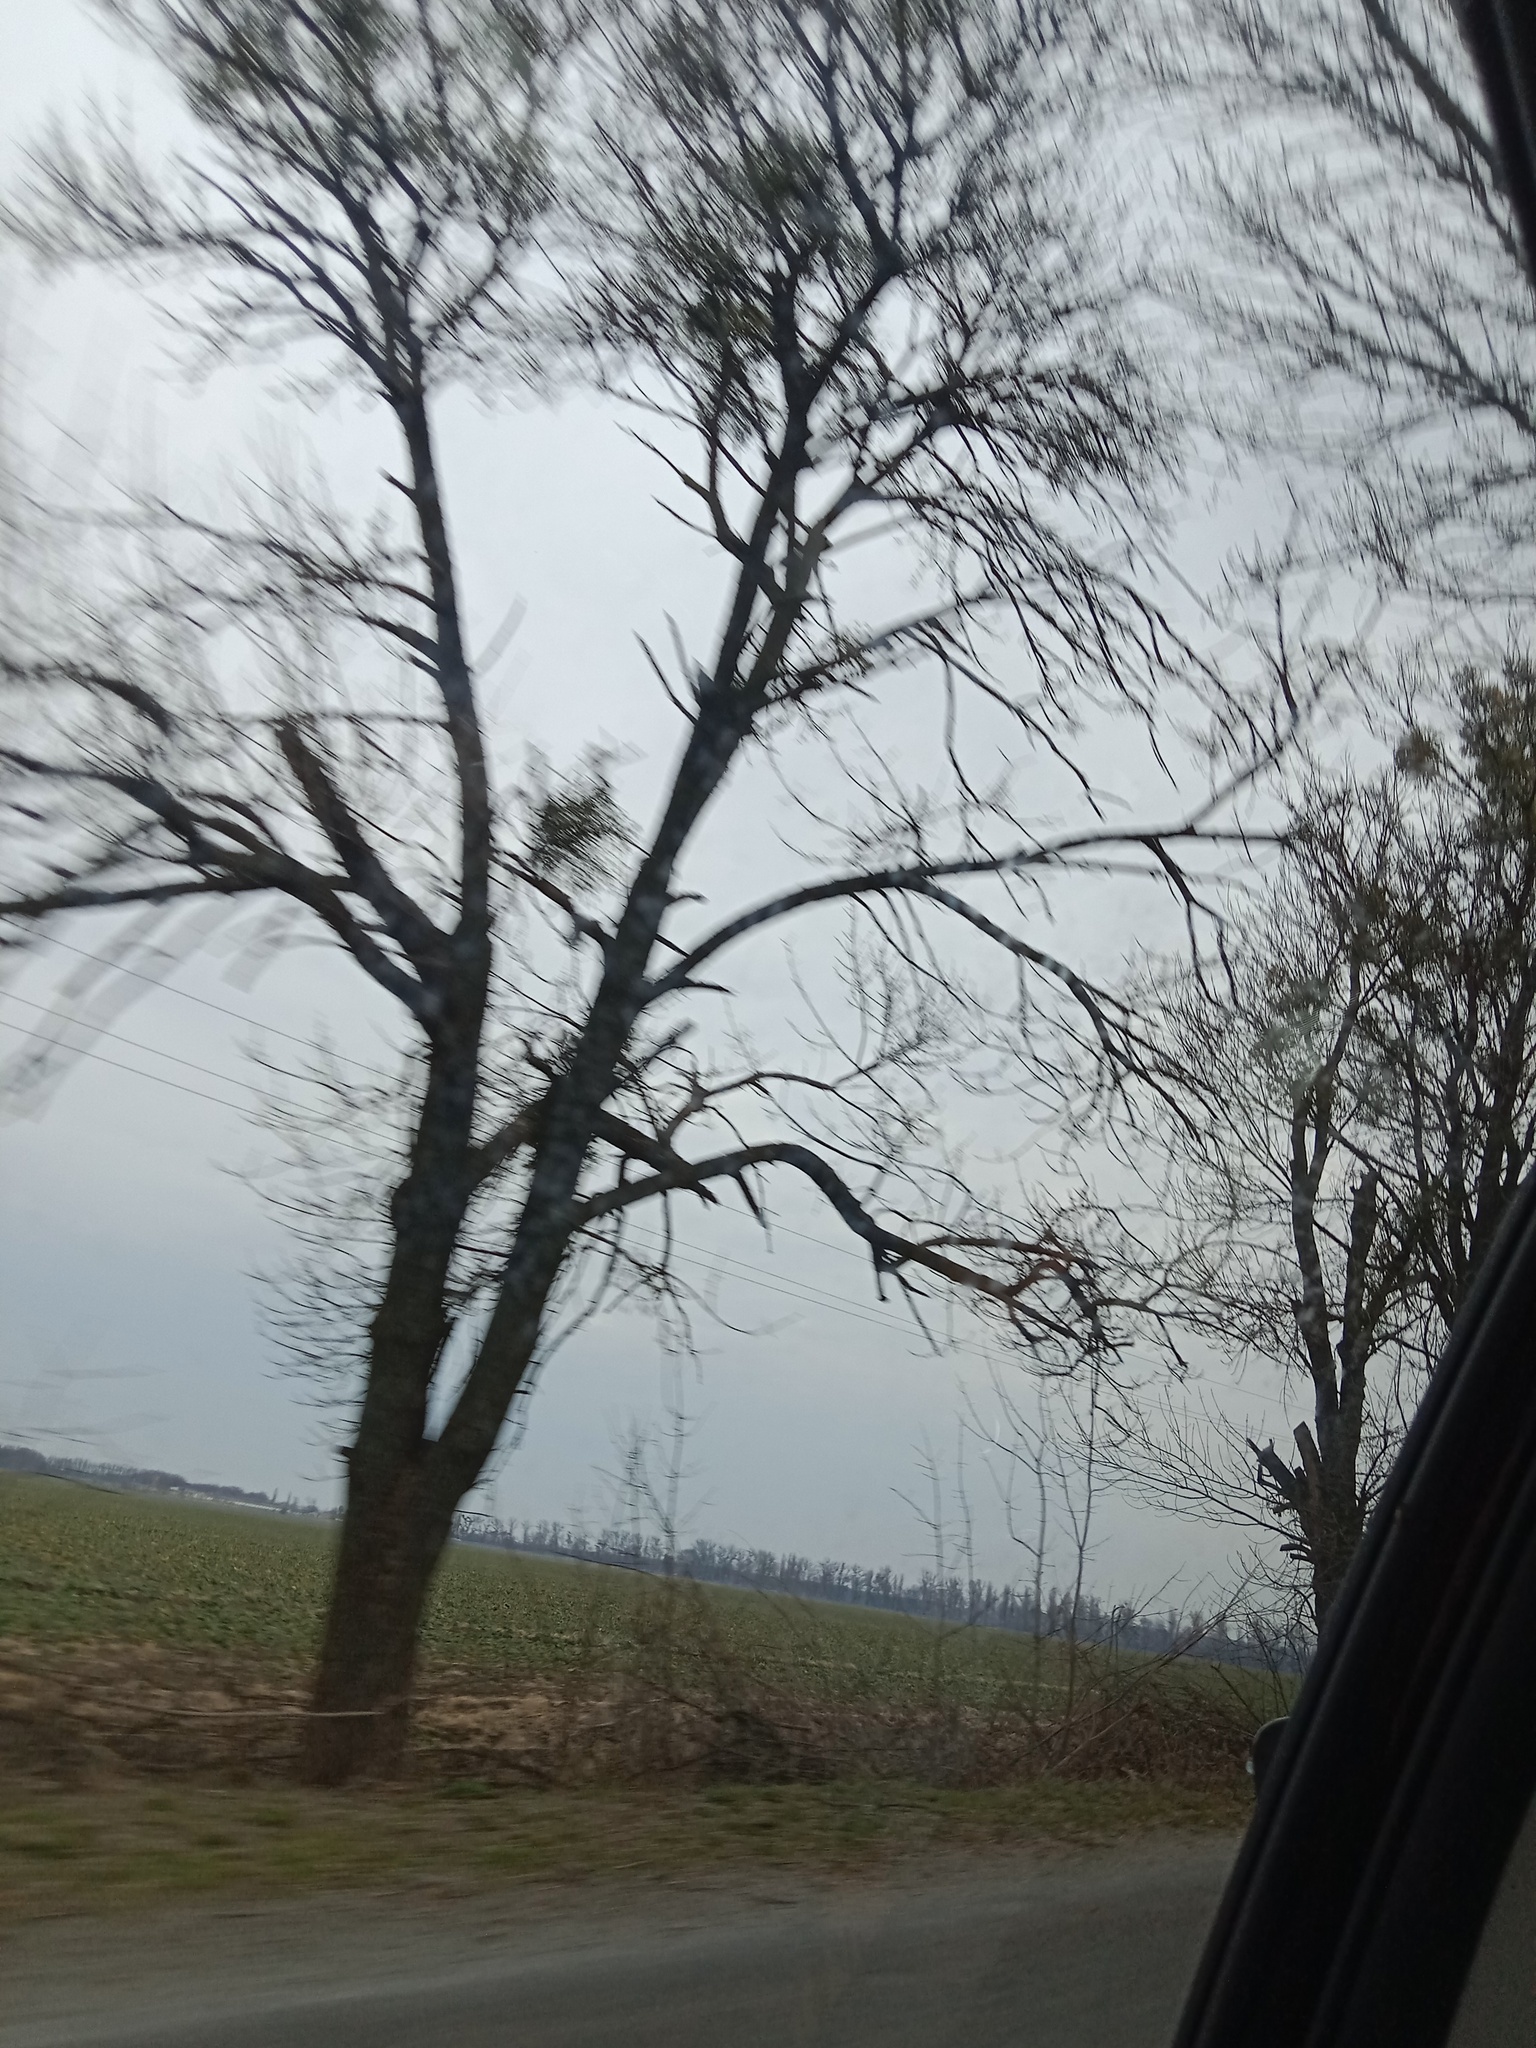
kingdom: Plantae
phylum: Tracheophyta
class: Magnoliopsida
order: Santalales
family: Viscaceae
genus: Viscum
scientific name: Viscum album
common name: Mistletoe
